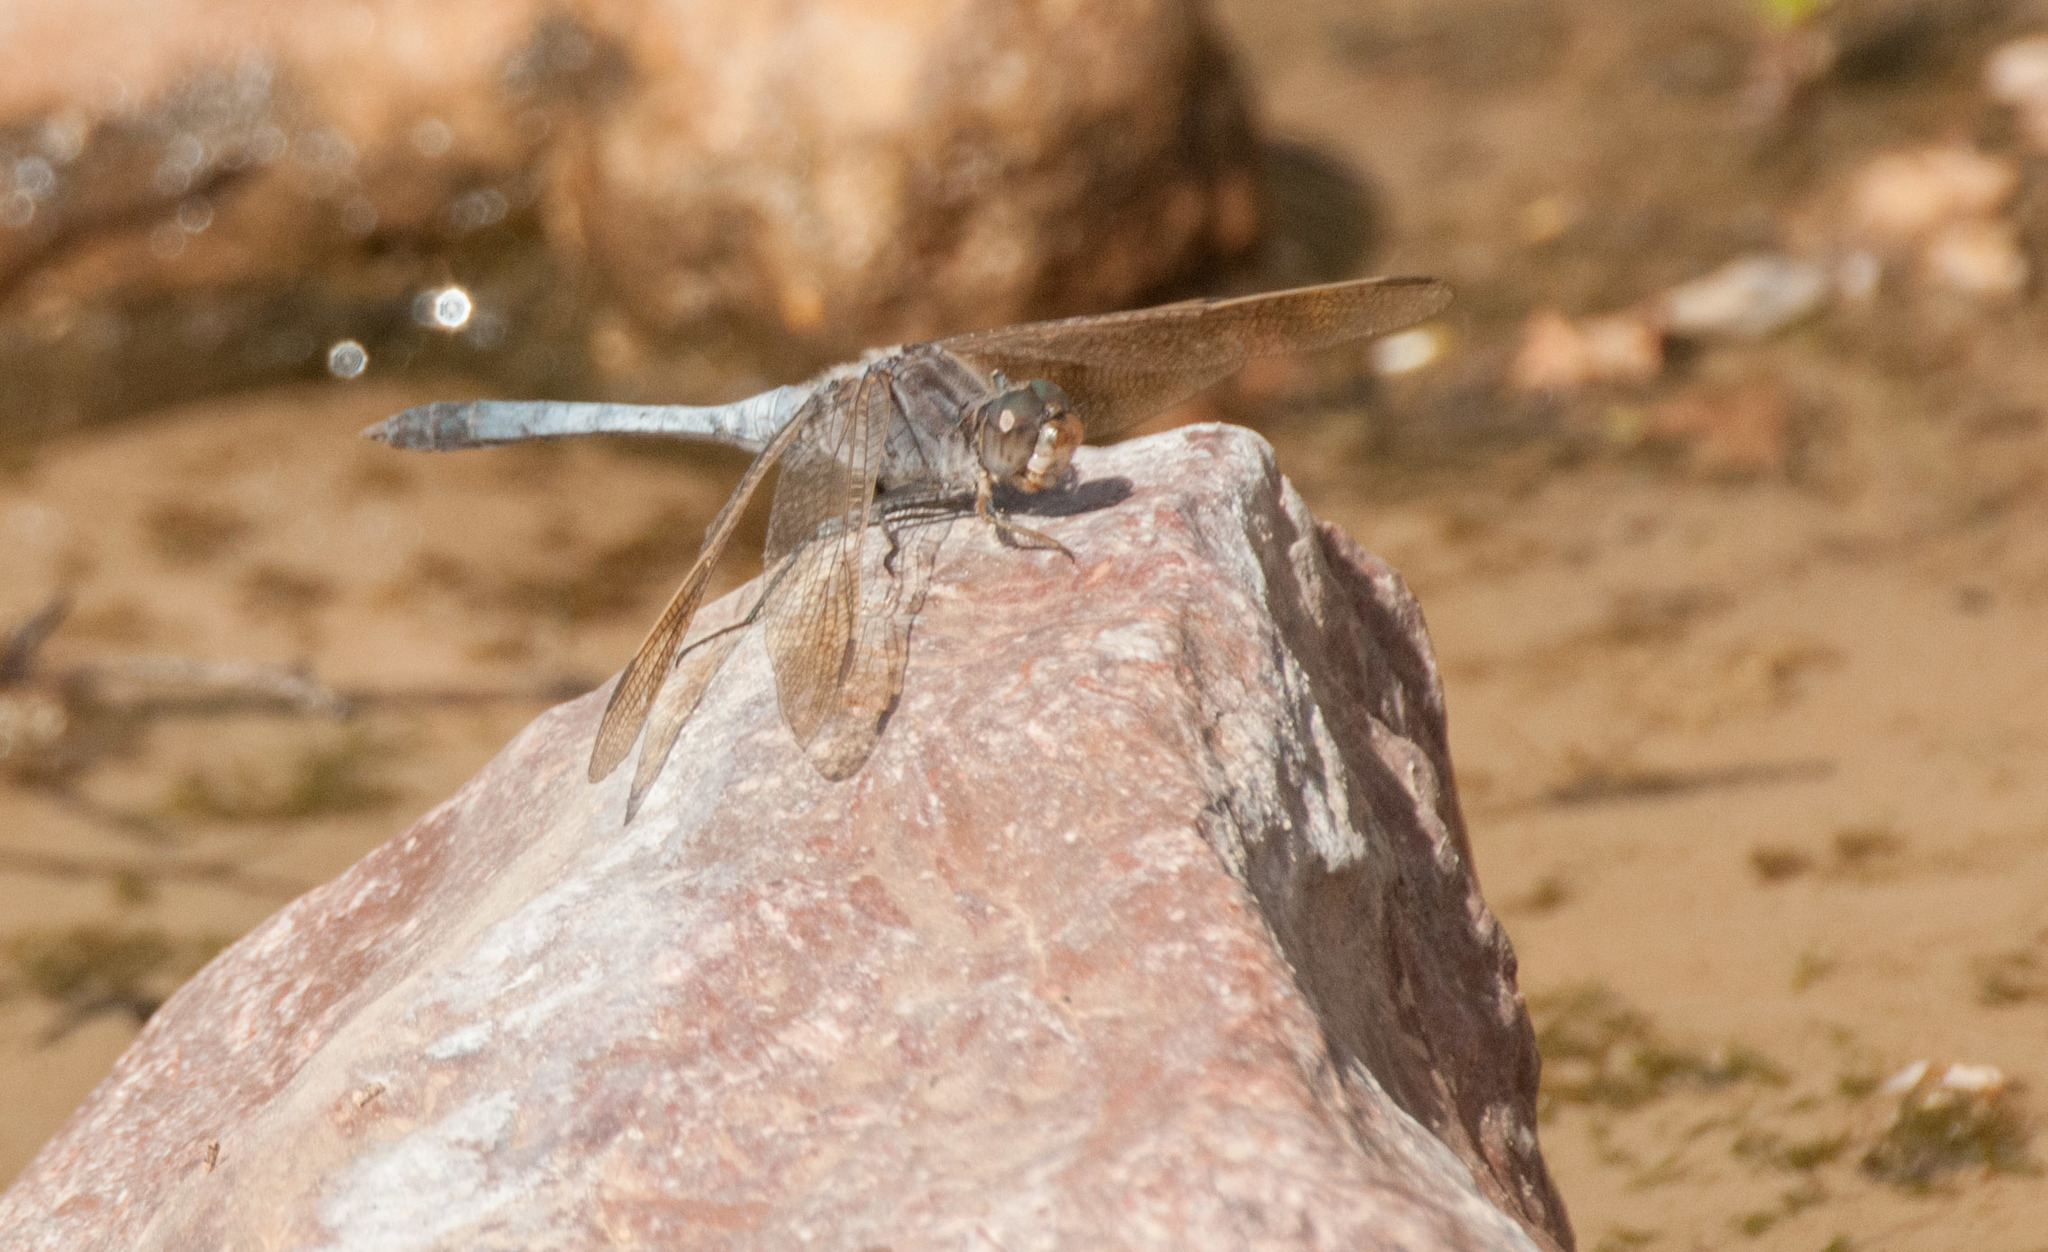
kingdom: Animalia
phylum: Arthropoda
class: Insecta
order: Odonata
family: Libellulidae
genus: Orthetrum
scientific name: Orthetrum caledonicum
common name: Blue skimmer
